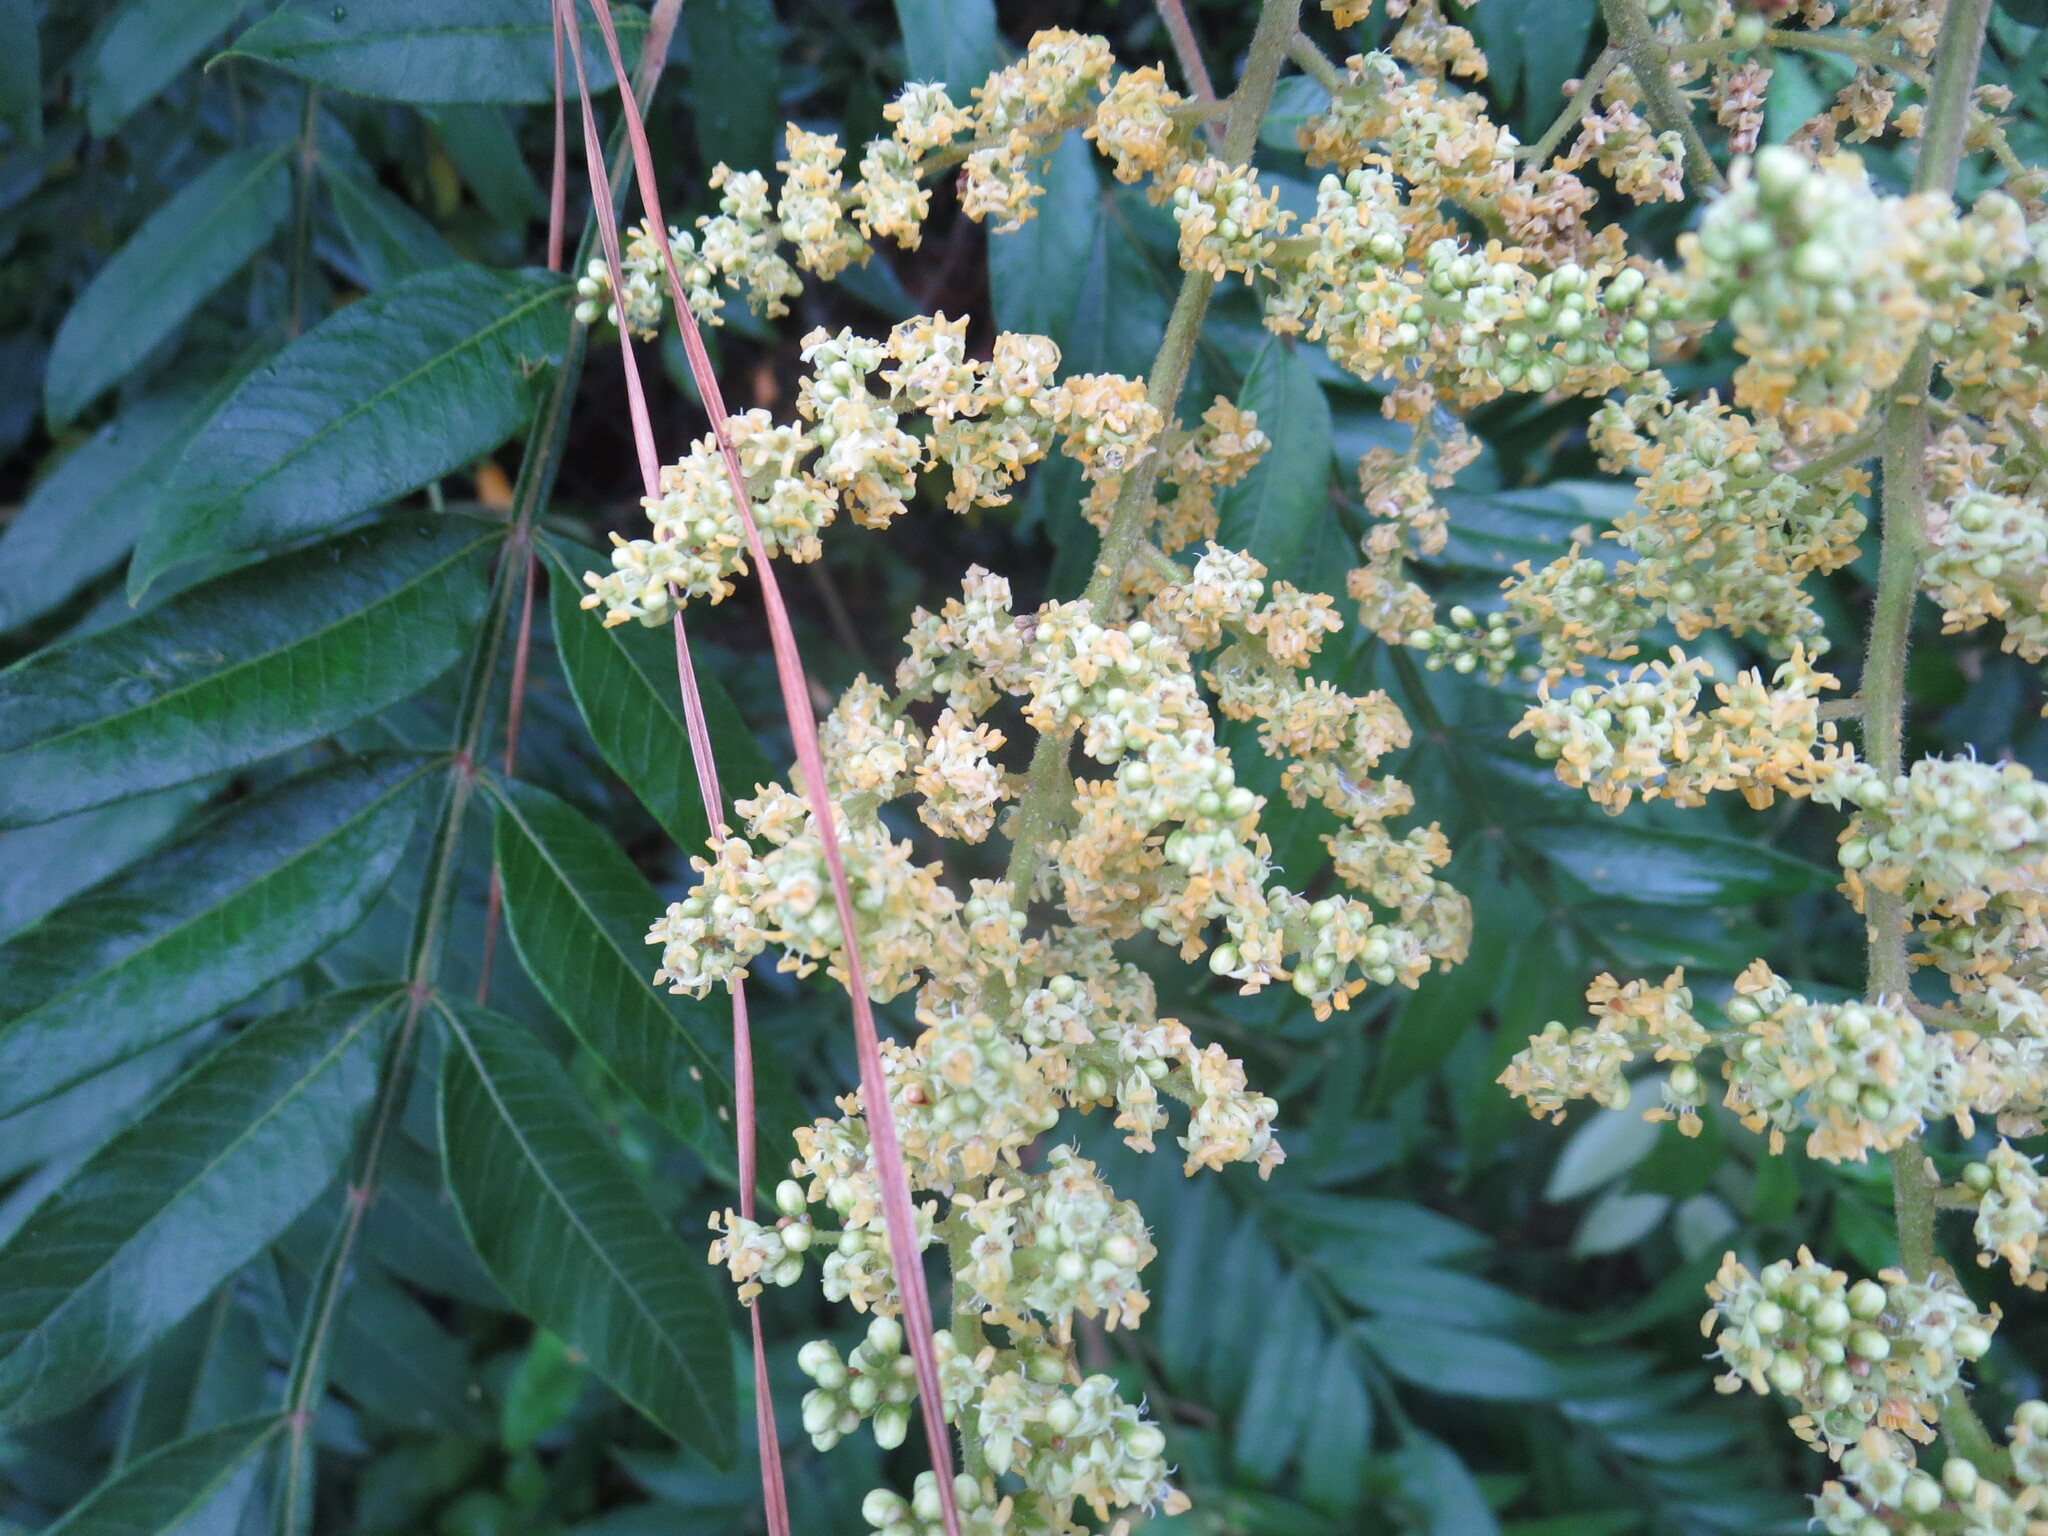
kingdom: Plantae
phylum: Tracheophyta
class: Magnoliopsida
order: Sapindales
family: Anacardiaceae
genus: Rhus
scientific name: Rhus copallina
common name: Shining sumac
